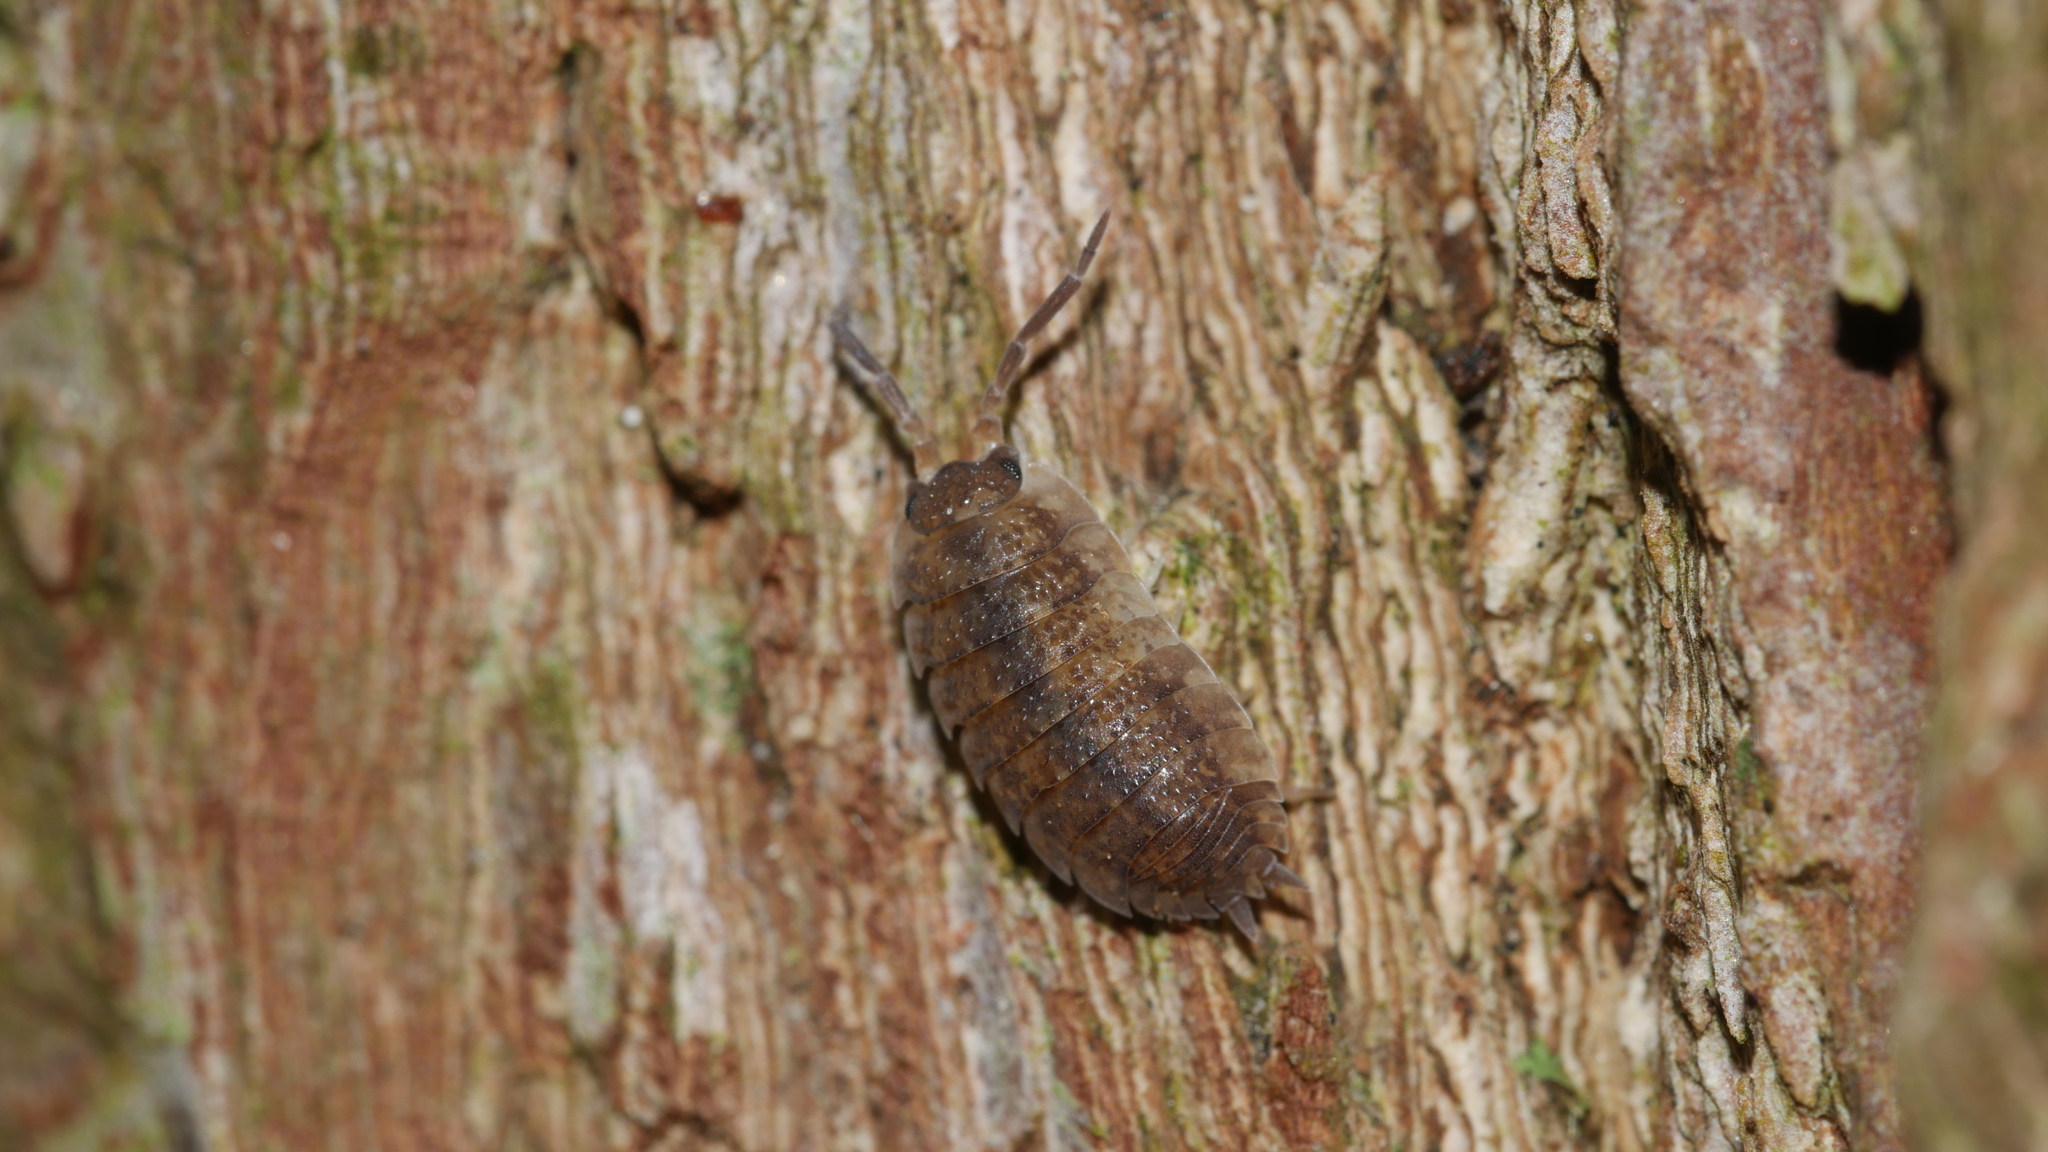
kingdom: Animalia
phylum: Arthropoda
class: Malacostraca
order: Isopoda
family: Porcellionidae
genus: Porcellio
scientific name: Porcellio scaber
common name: Common rough woodlouse
